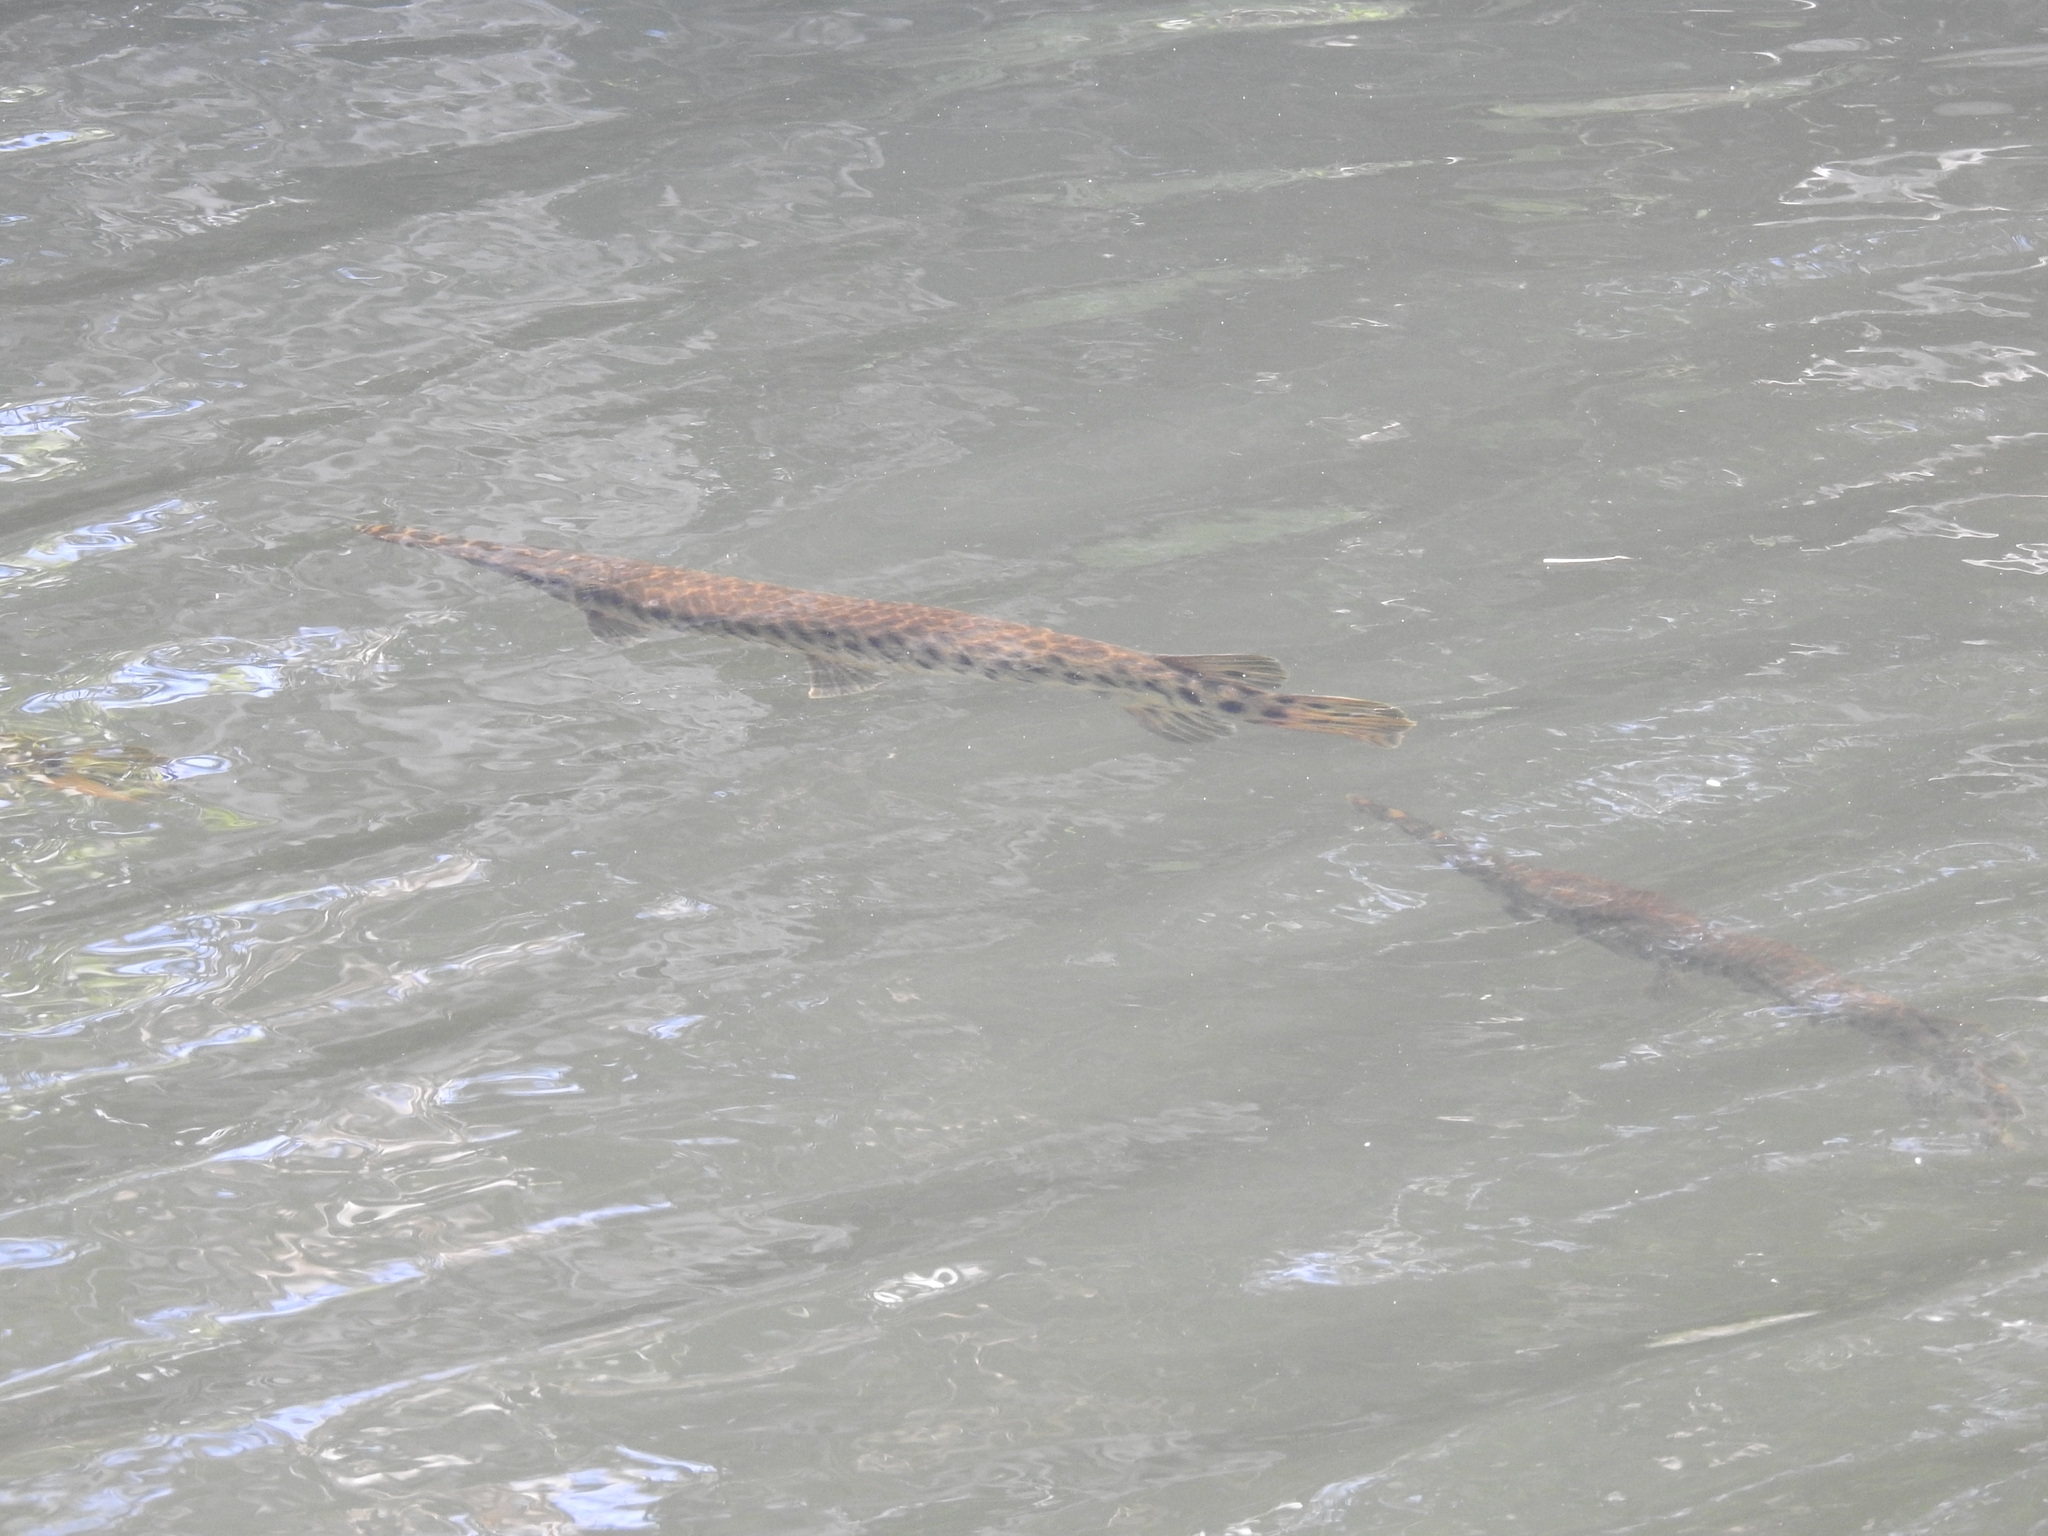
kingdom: Animalia
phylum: Chordata
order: Lepisosteiformes
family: Lepisosteidae
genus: Lepisosteus
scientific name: Lepisosteus platyrhincus
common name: Florida gar
